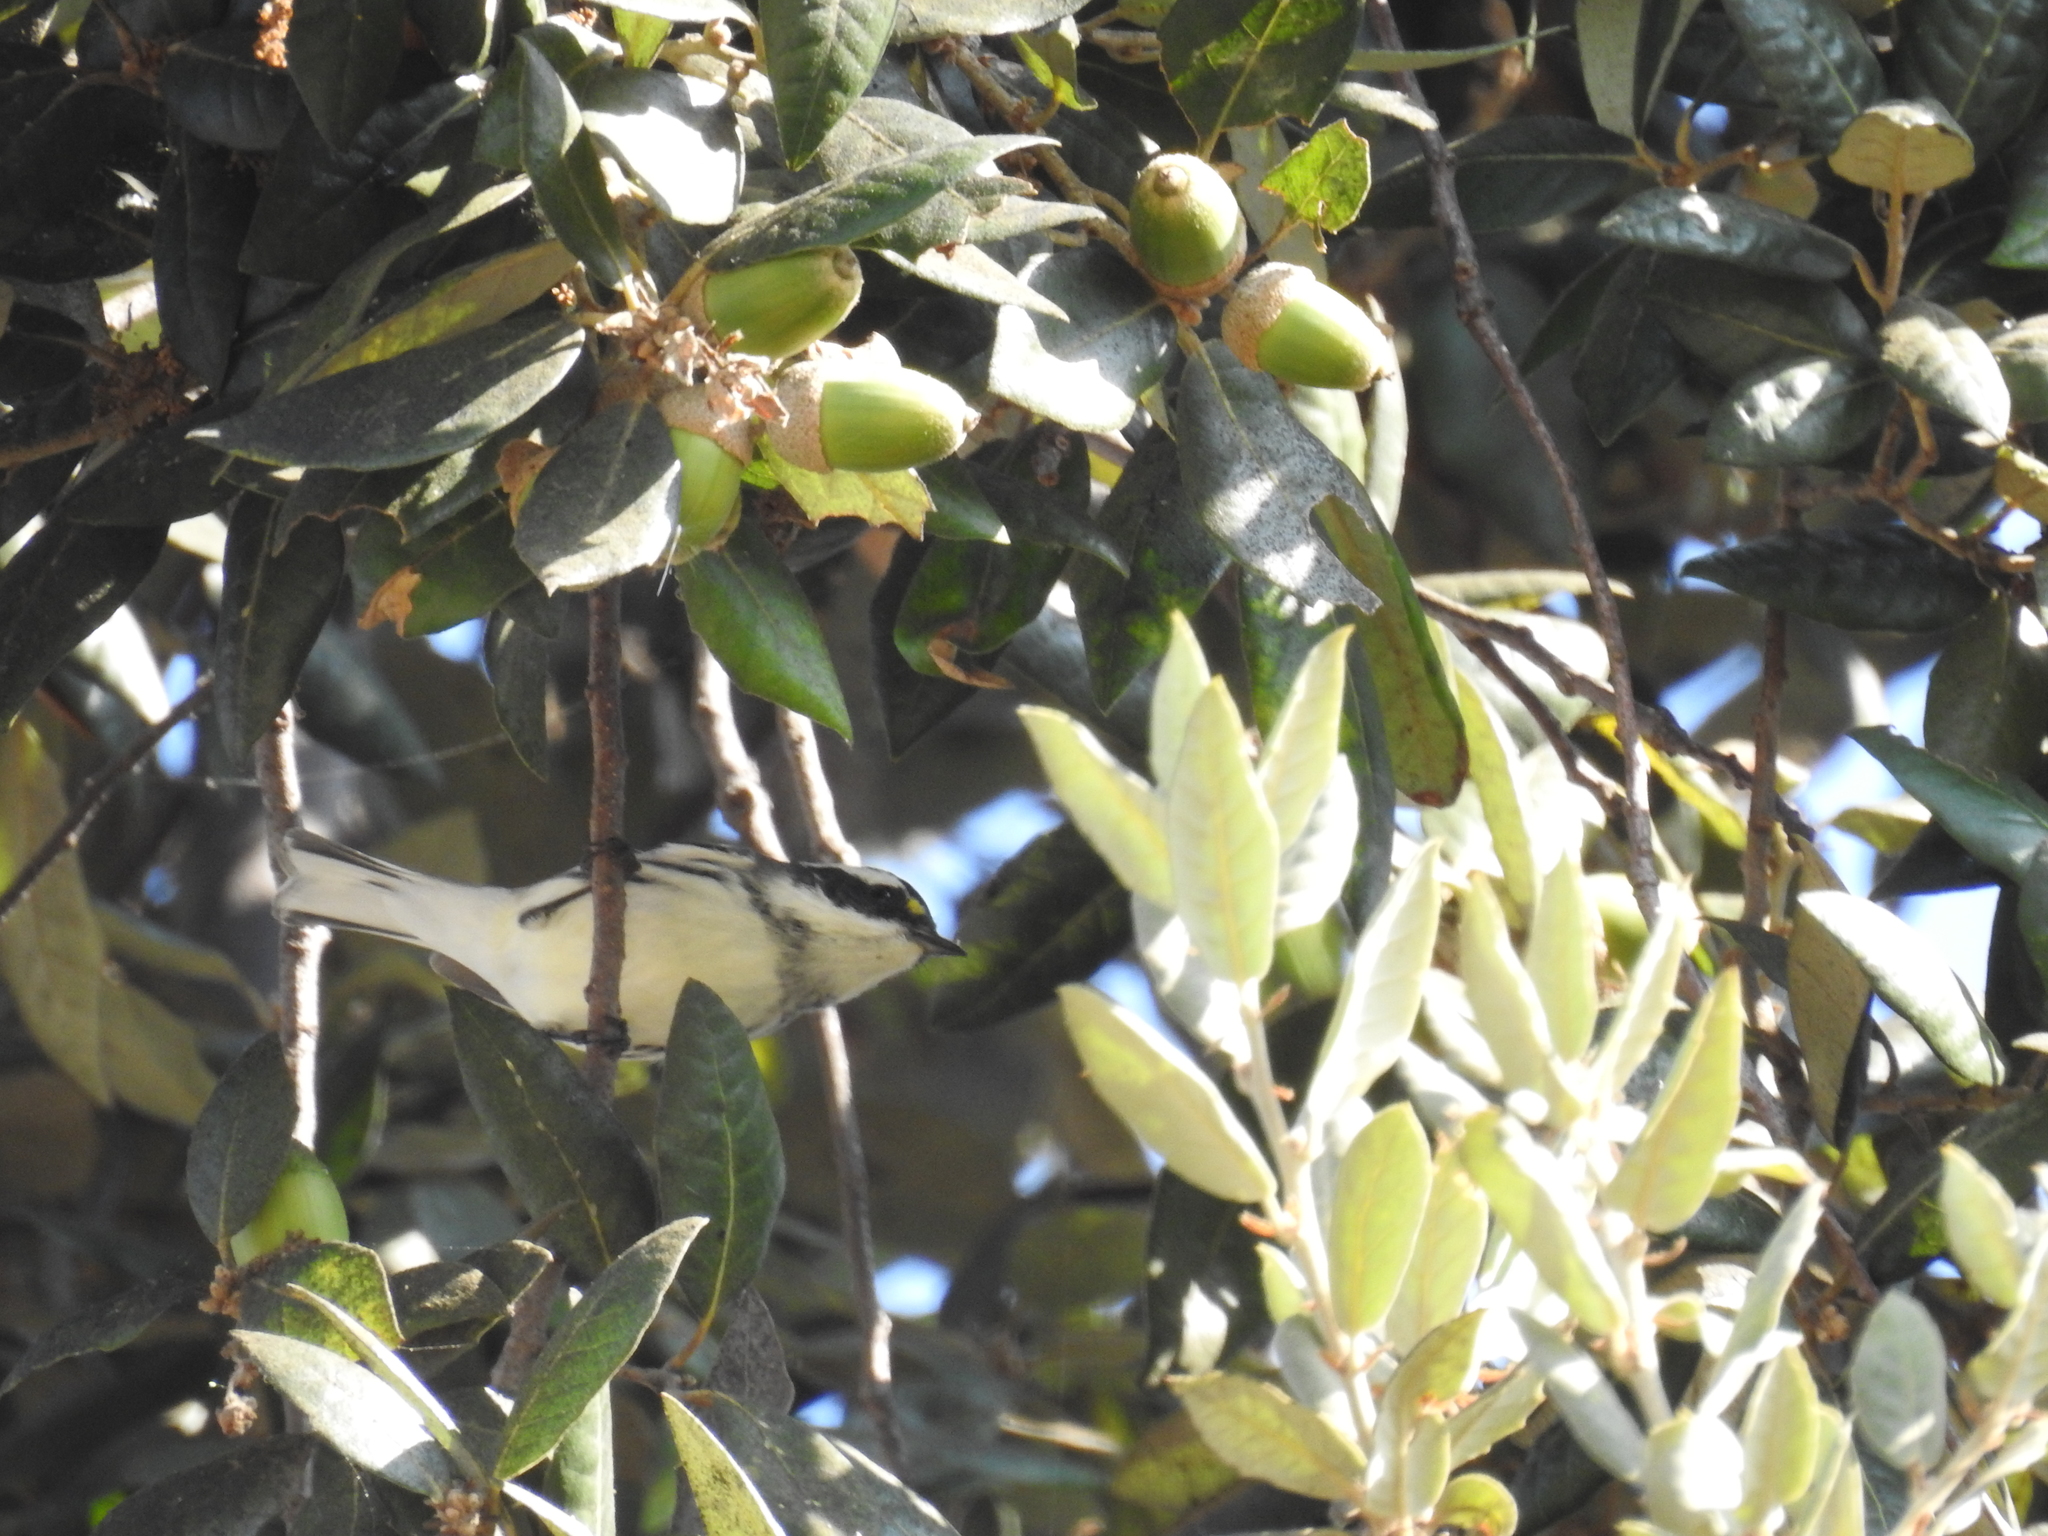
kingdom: Animalia
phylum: Chordata
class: Aves
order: Passeriformes
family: Parulidae
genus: Setophaga
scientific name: Setophaga nigrescens
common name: Black-throated gray warbler
